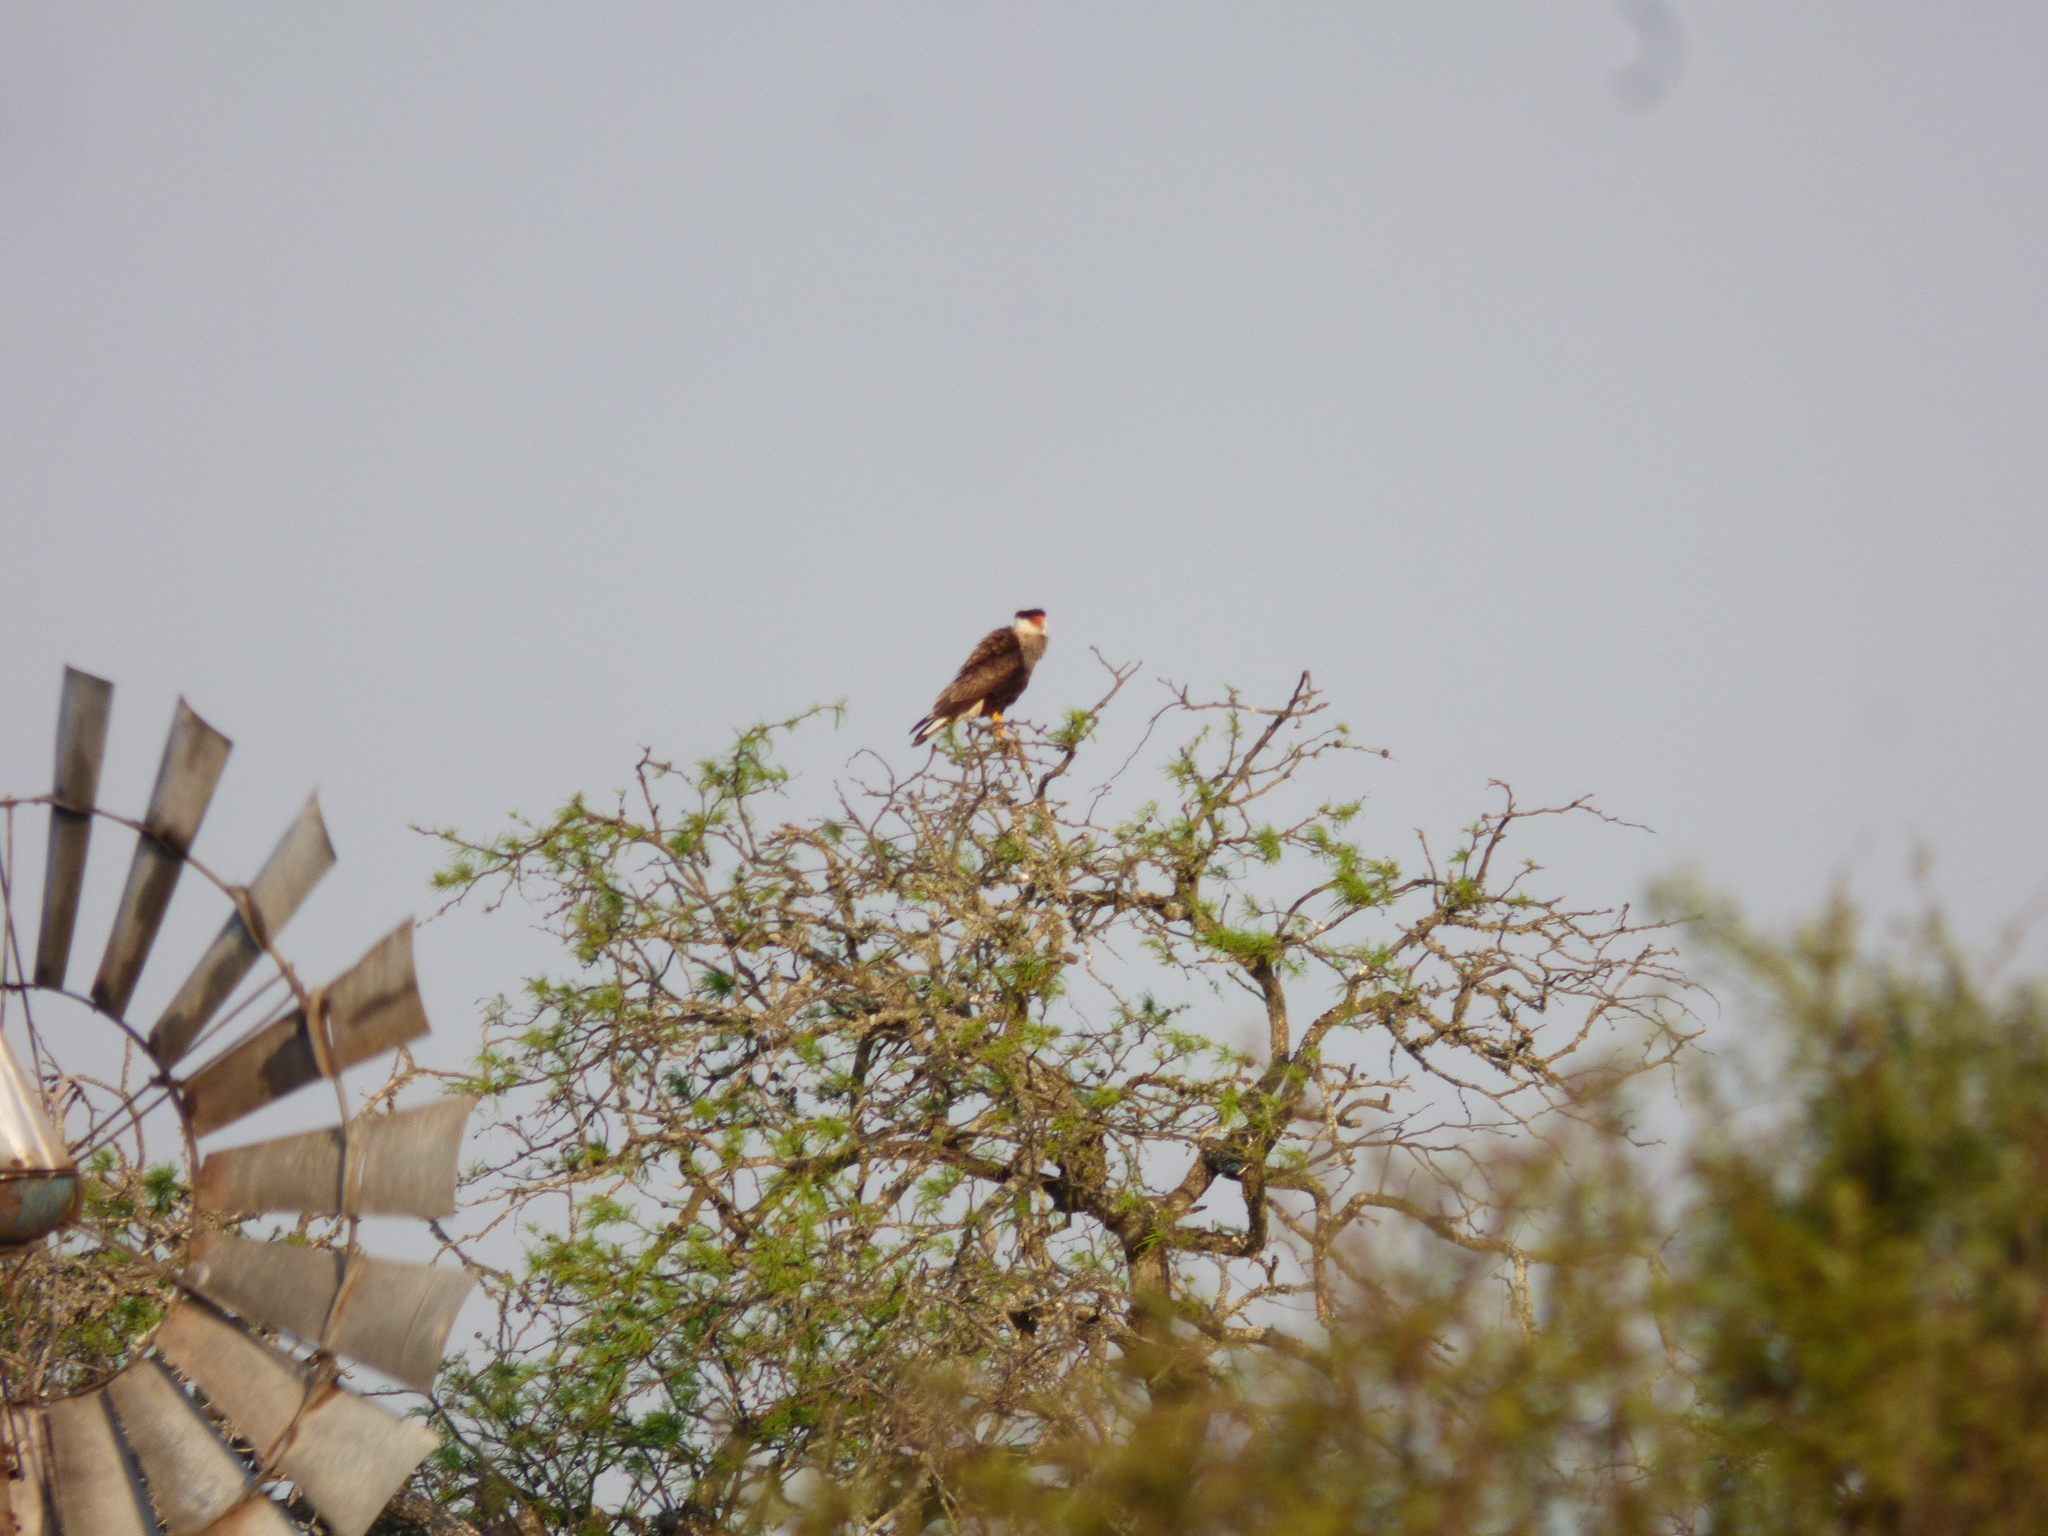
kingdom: Animalia
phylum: Chordata
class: Aves
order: Falconiformes
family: Falconidae
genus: Caracara
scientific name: Caracara plancus
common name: Southern caracara
